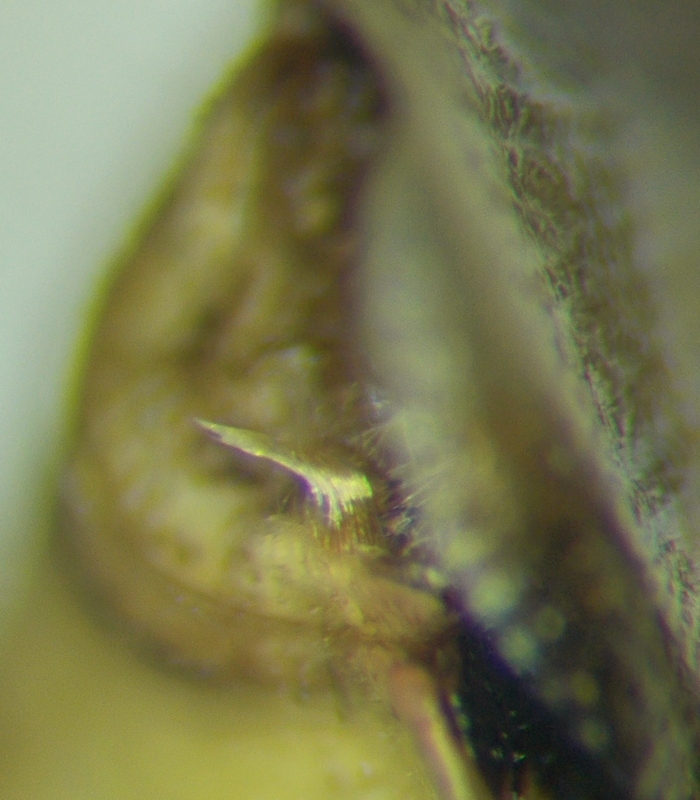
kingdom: Animalia
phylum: Arthropoda
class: Insecta
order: Hemiptera
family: Miridae
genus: Orthops
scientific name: Orthops kalmii
